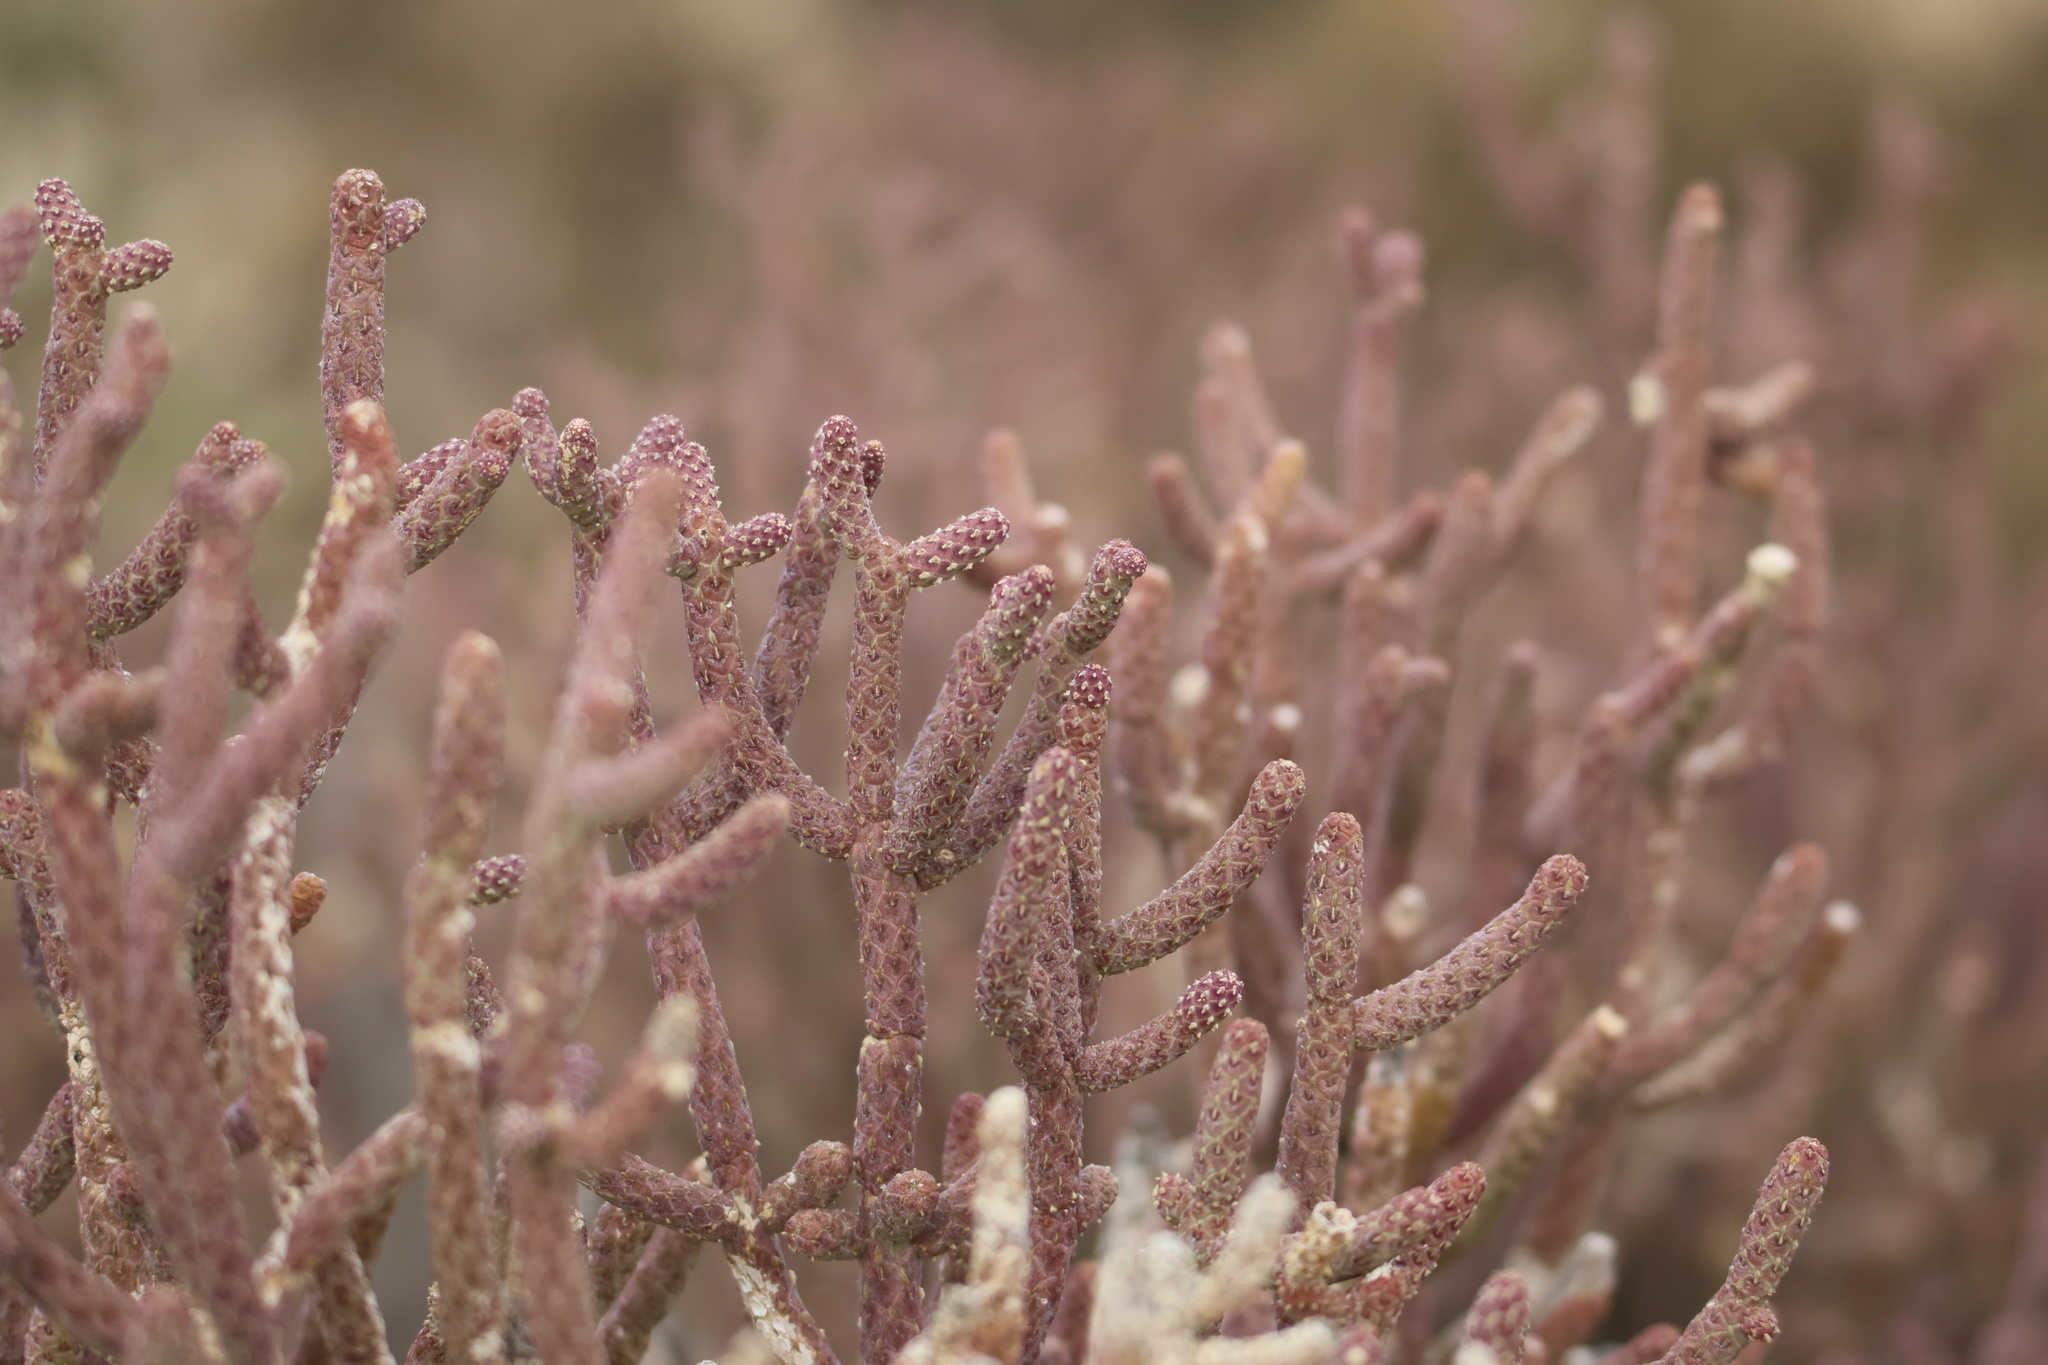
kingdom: Plantae
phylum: Tracheophyta
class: Magnoliopsida
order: Caryophyllales
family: Cactaceae
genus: Cylindropuntia
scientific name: Cylindropuntia ramosissima
